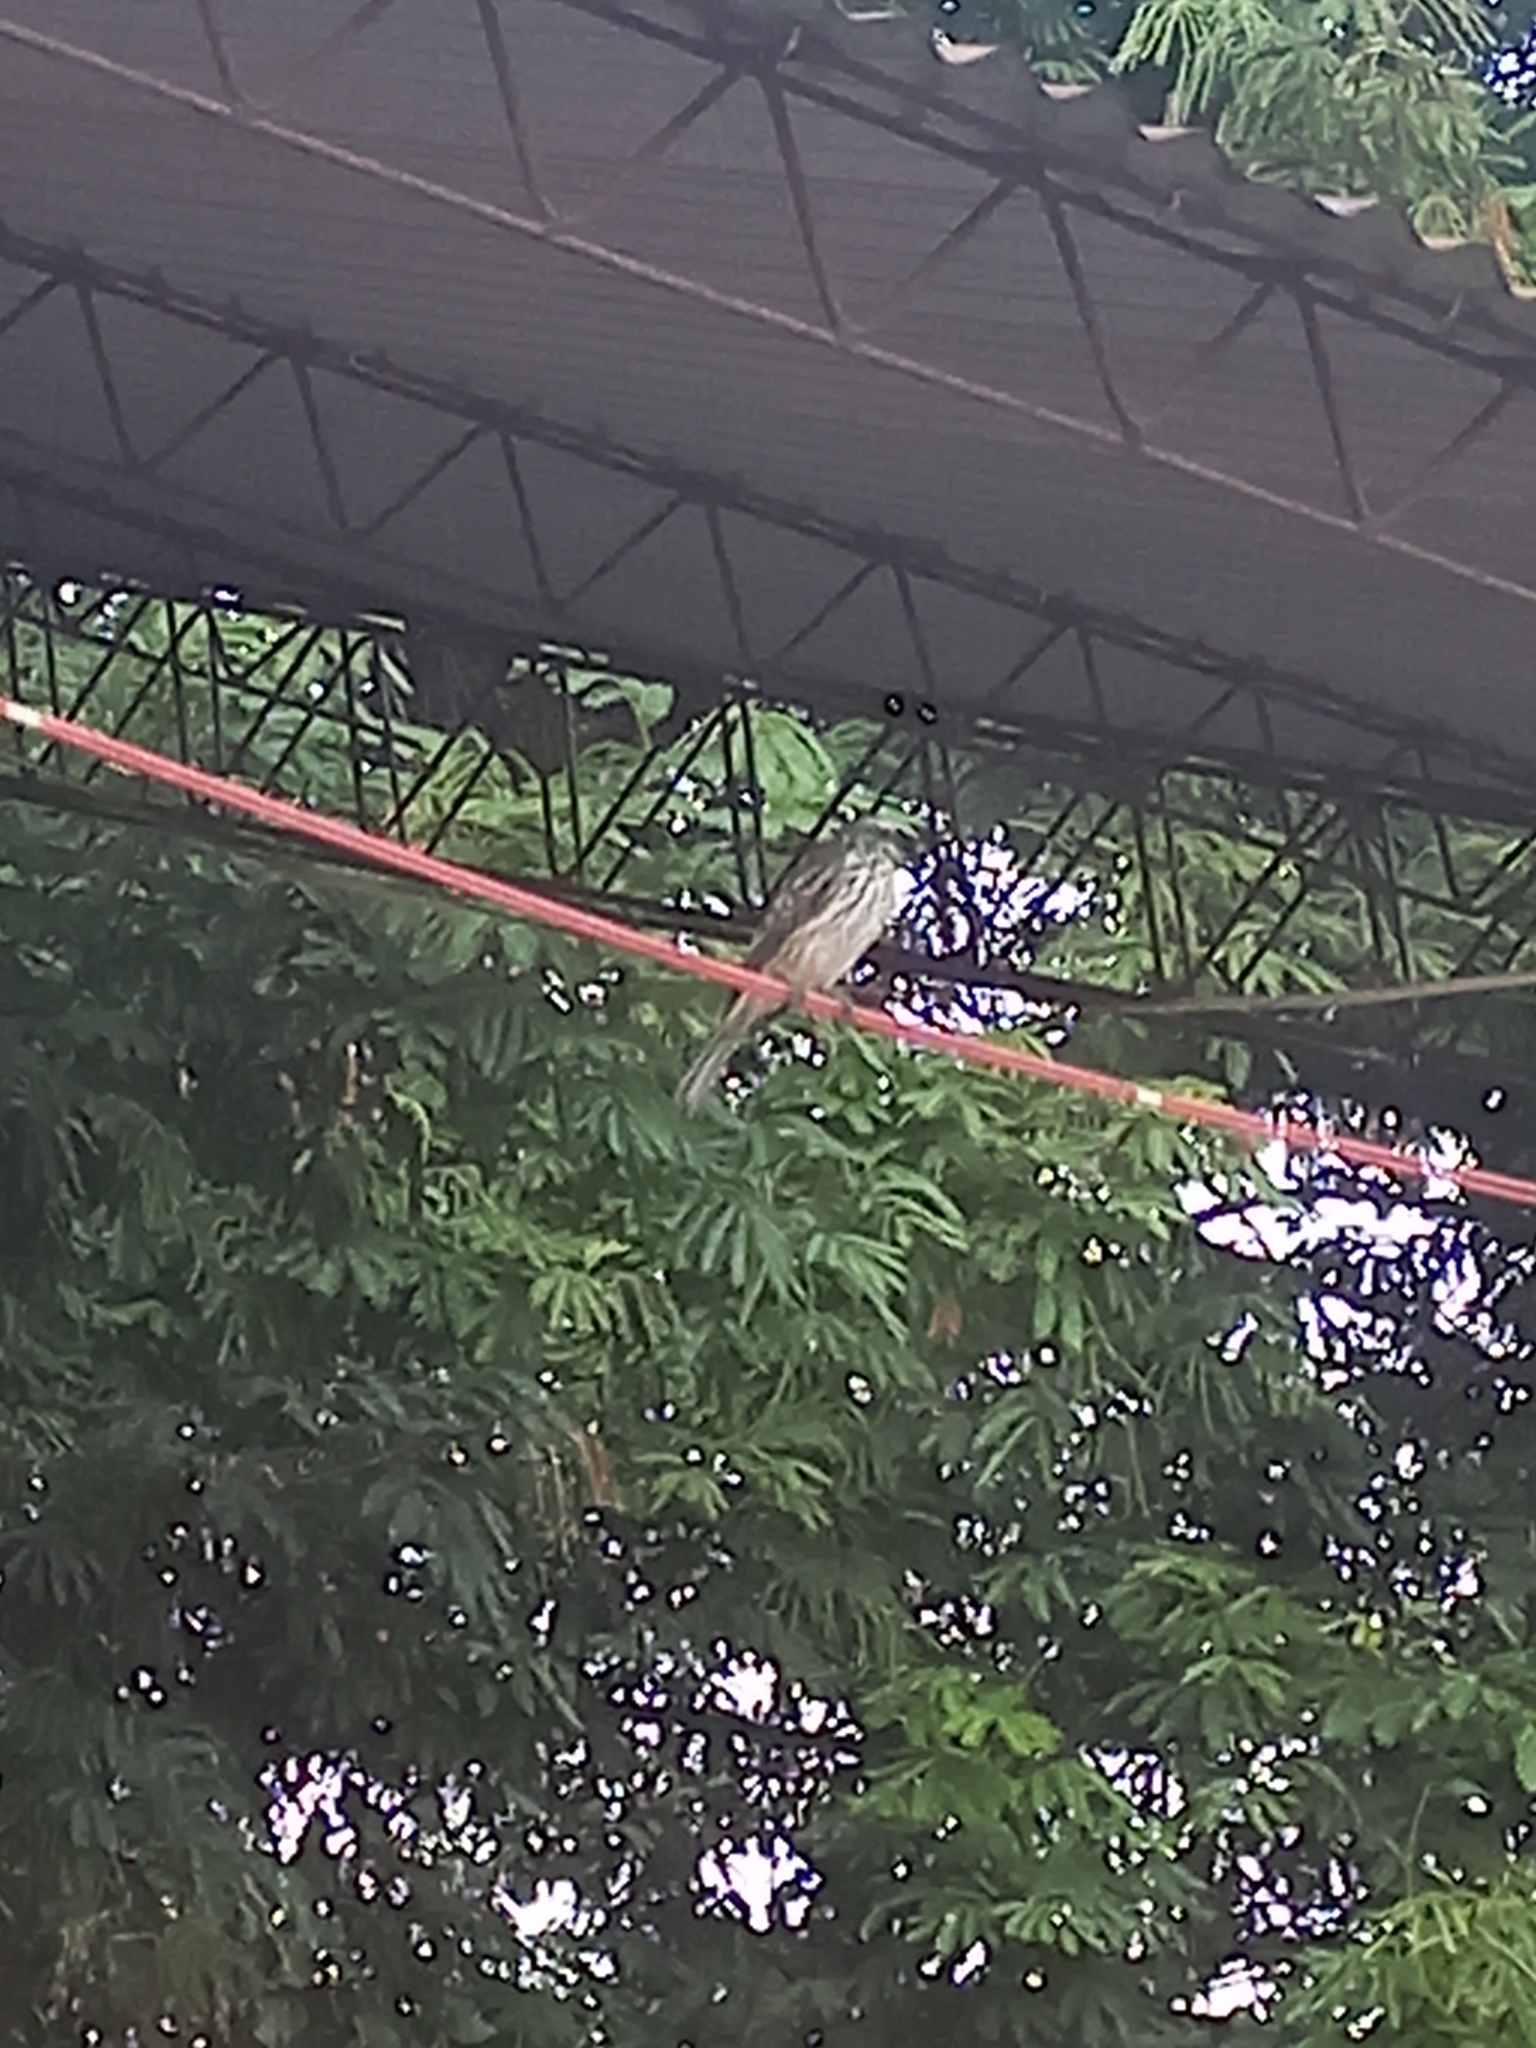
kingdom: Animalia
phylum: Chordata
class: Aves
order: Passeriformes
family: Tyrannidae
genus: Empidonomus
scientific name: Empidonomus varius
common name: Variegated flycatcher
